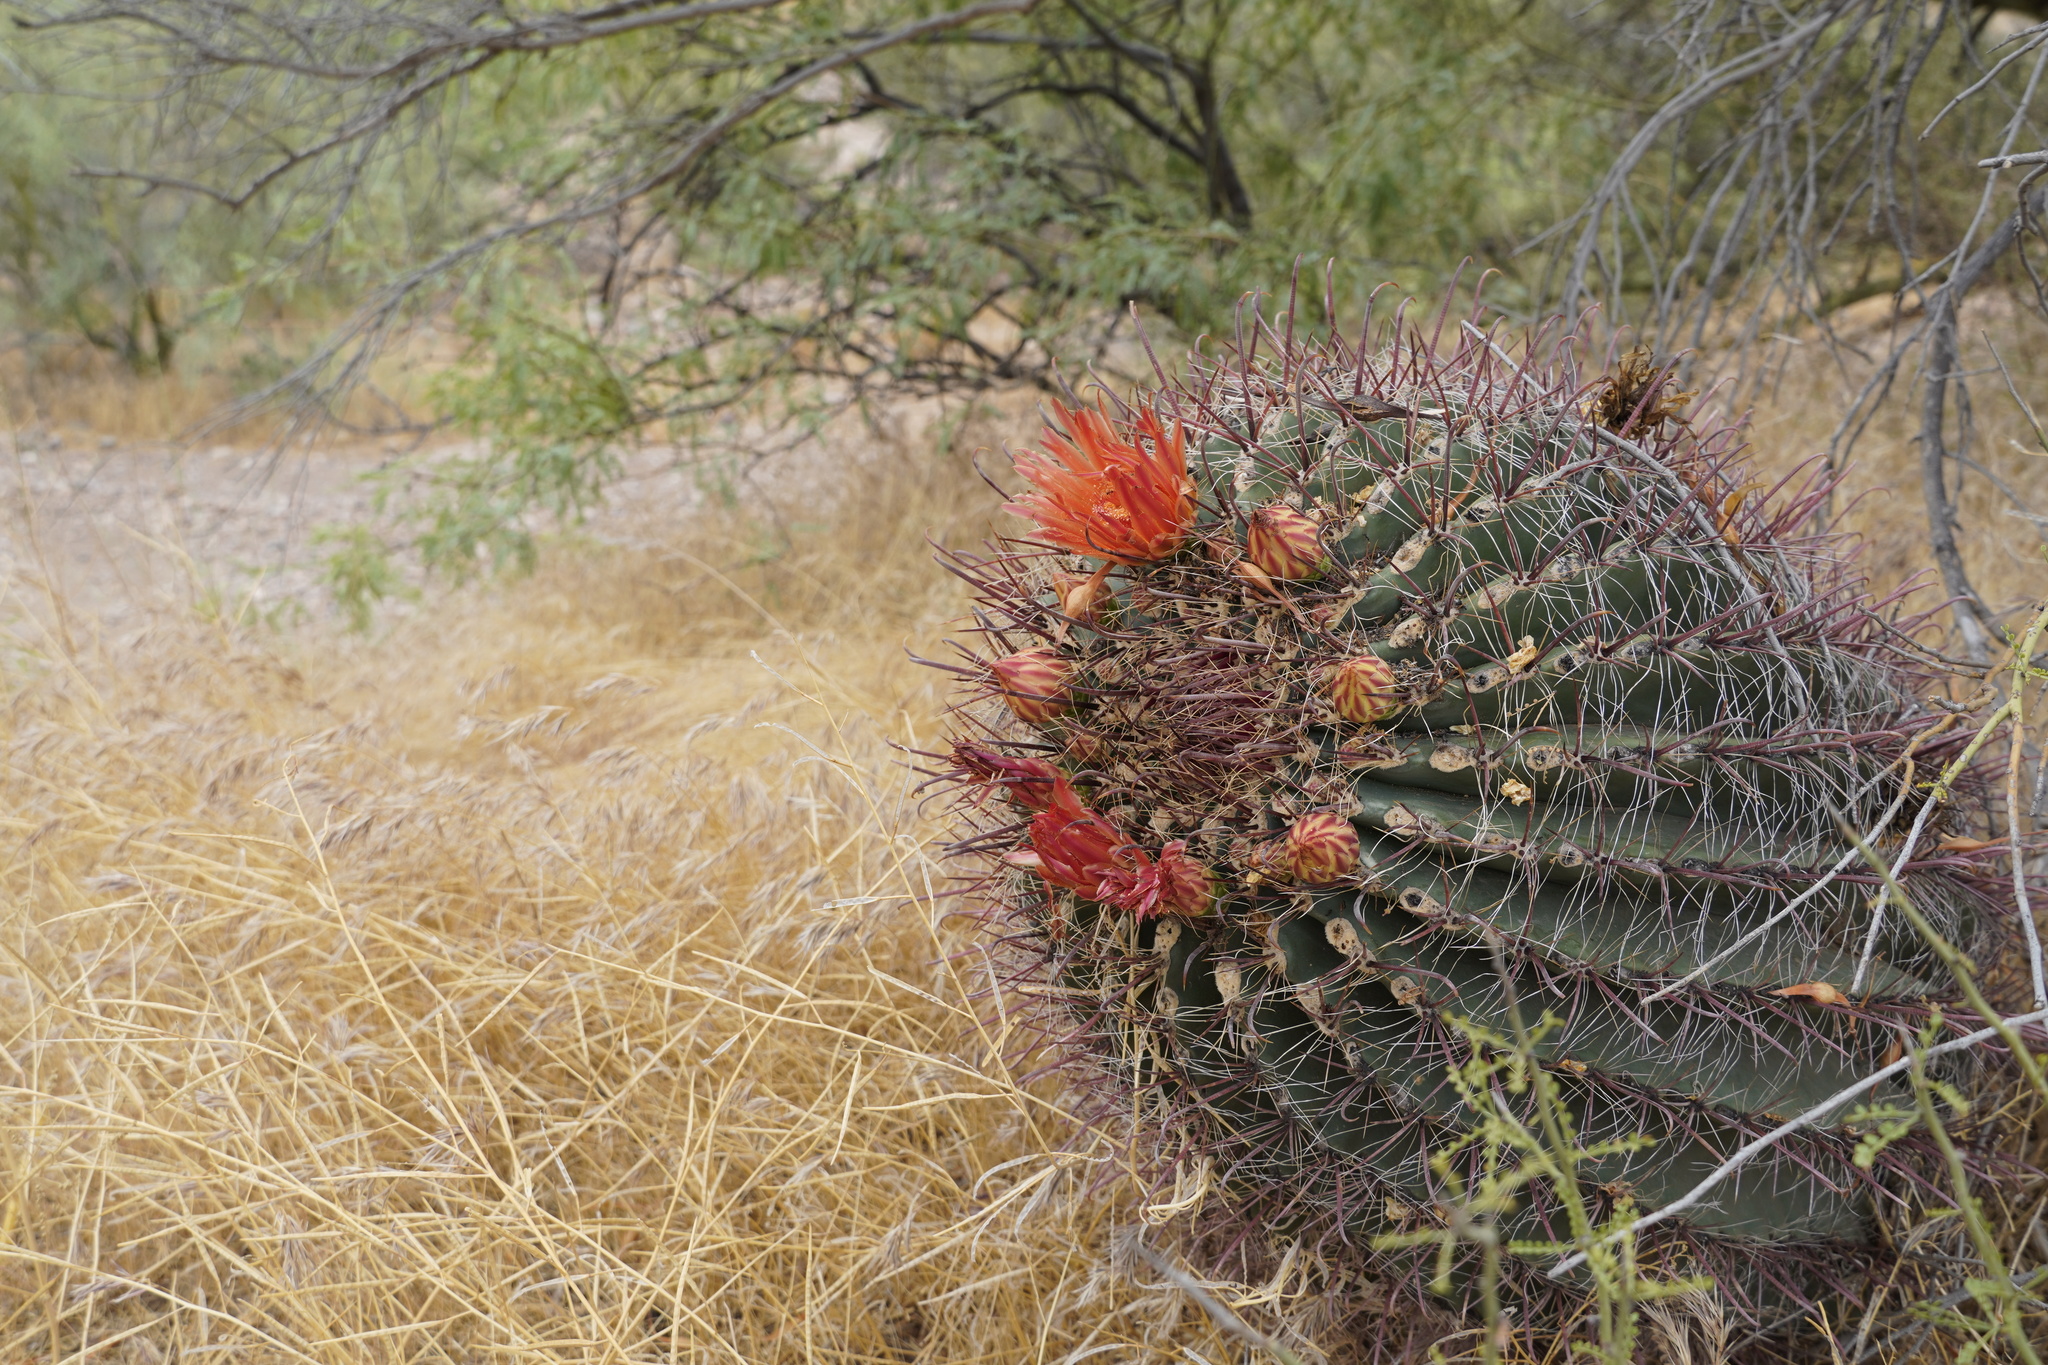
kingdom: Plantae
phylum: Tracheophyta
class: Magnoliopsida
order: Caryophyllales
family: Cactaceae
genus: Ferocactus
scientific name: Ferocactus wislizeni
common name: Candy barrel cactus
